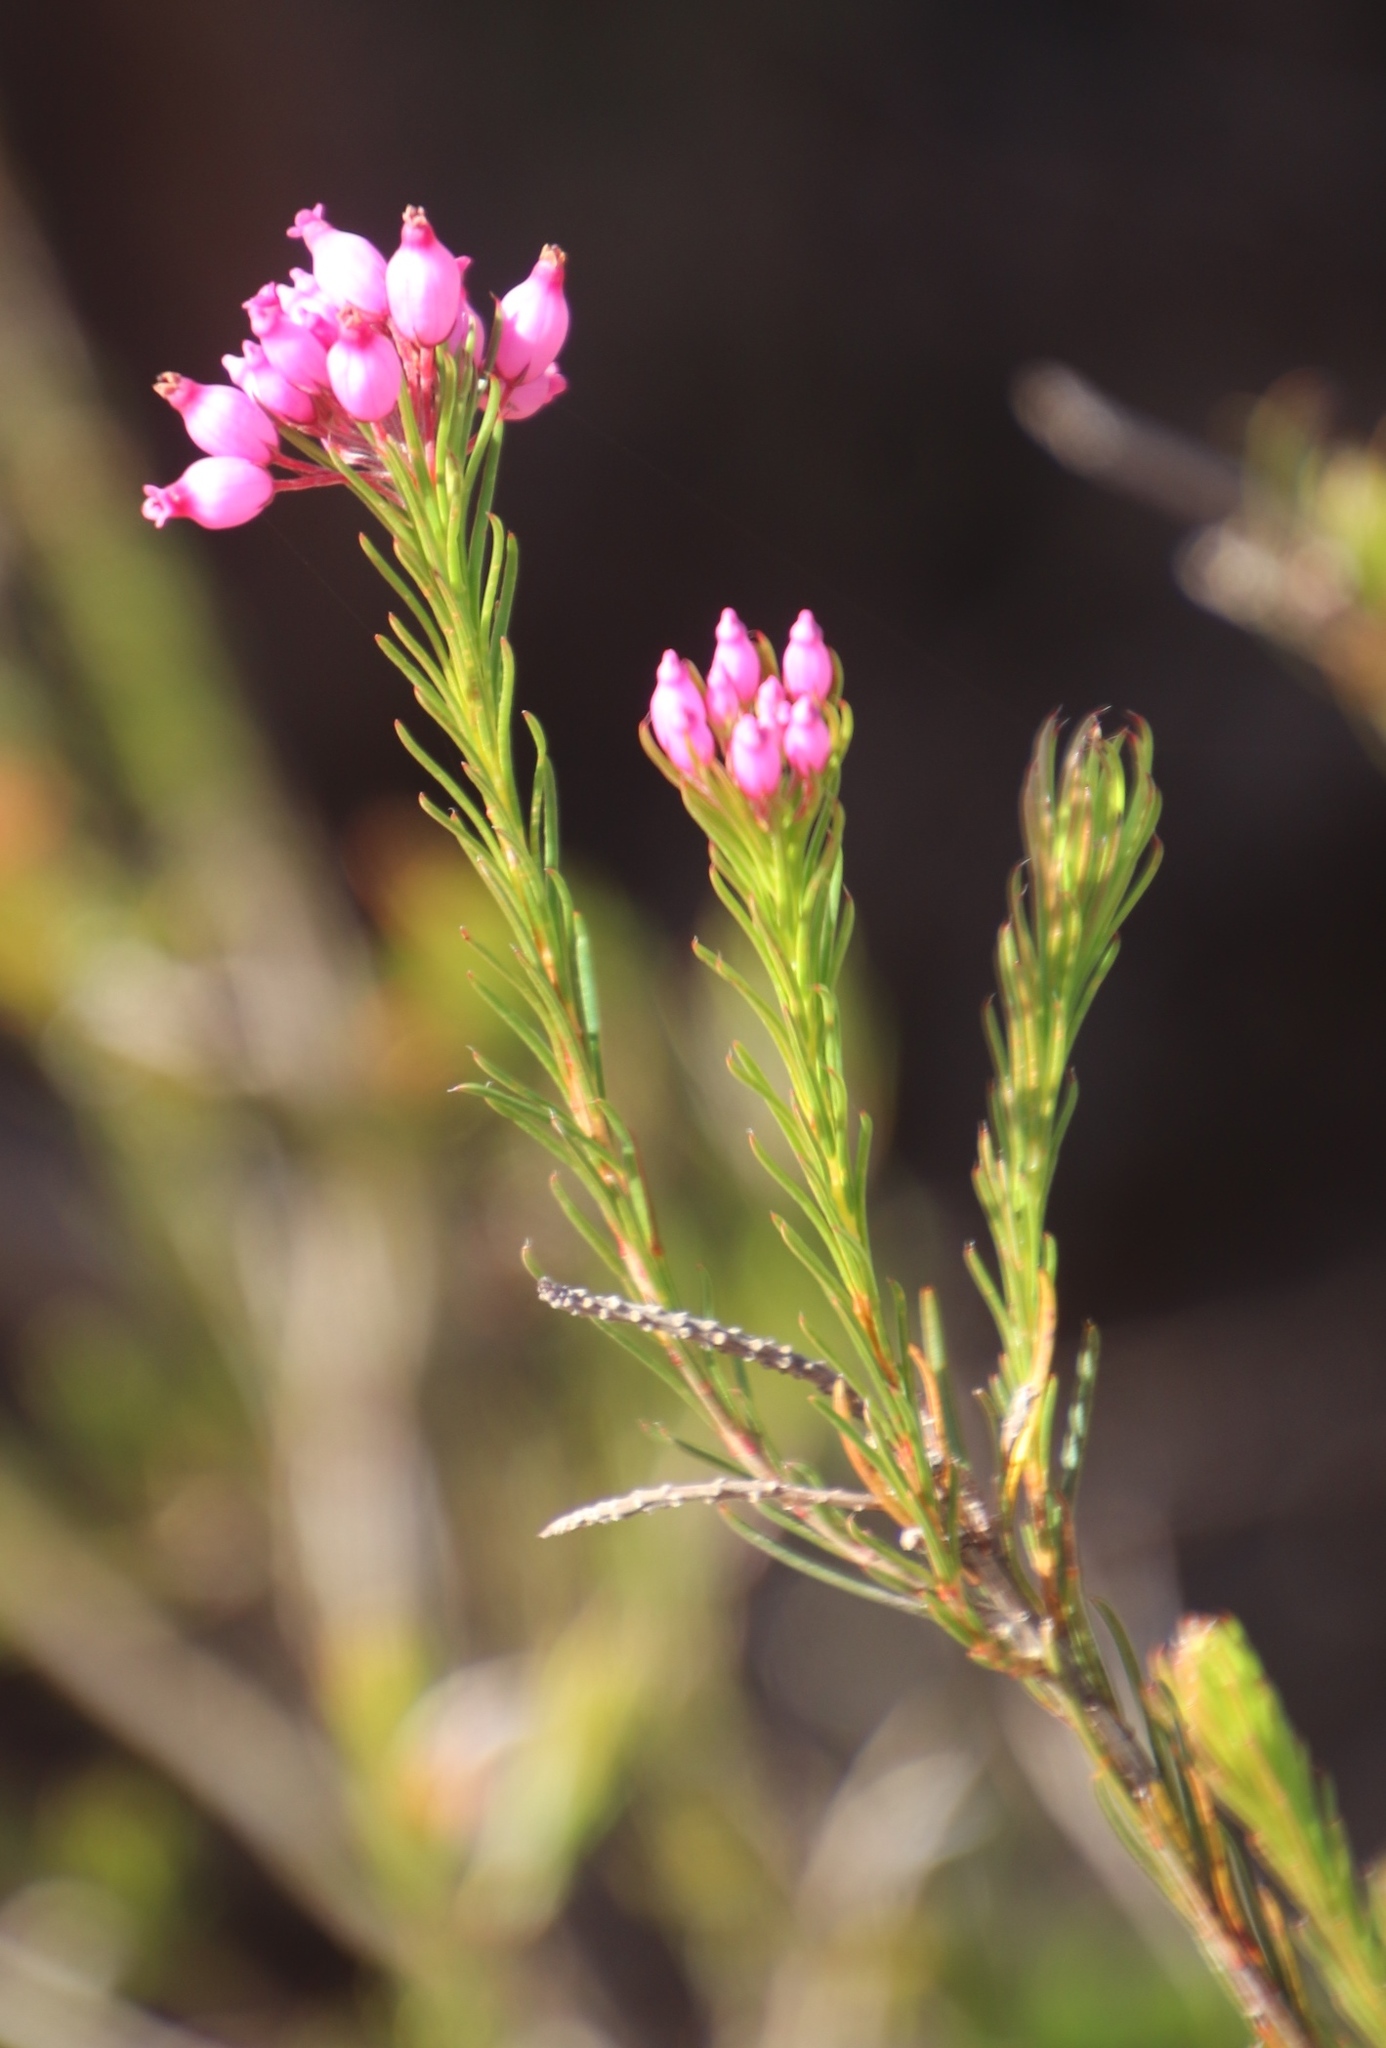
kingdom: Plantae
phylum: Tracheophyta
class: Magnoliopsida
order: Ericales
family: Ericaceae
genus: Erica
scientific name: Erica inflata
